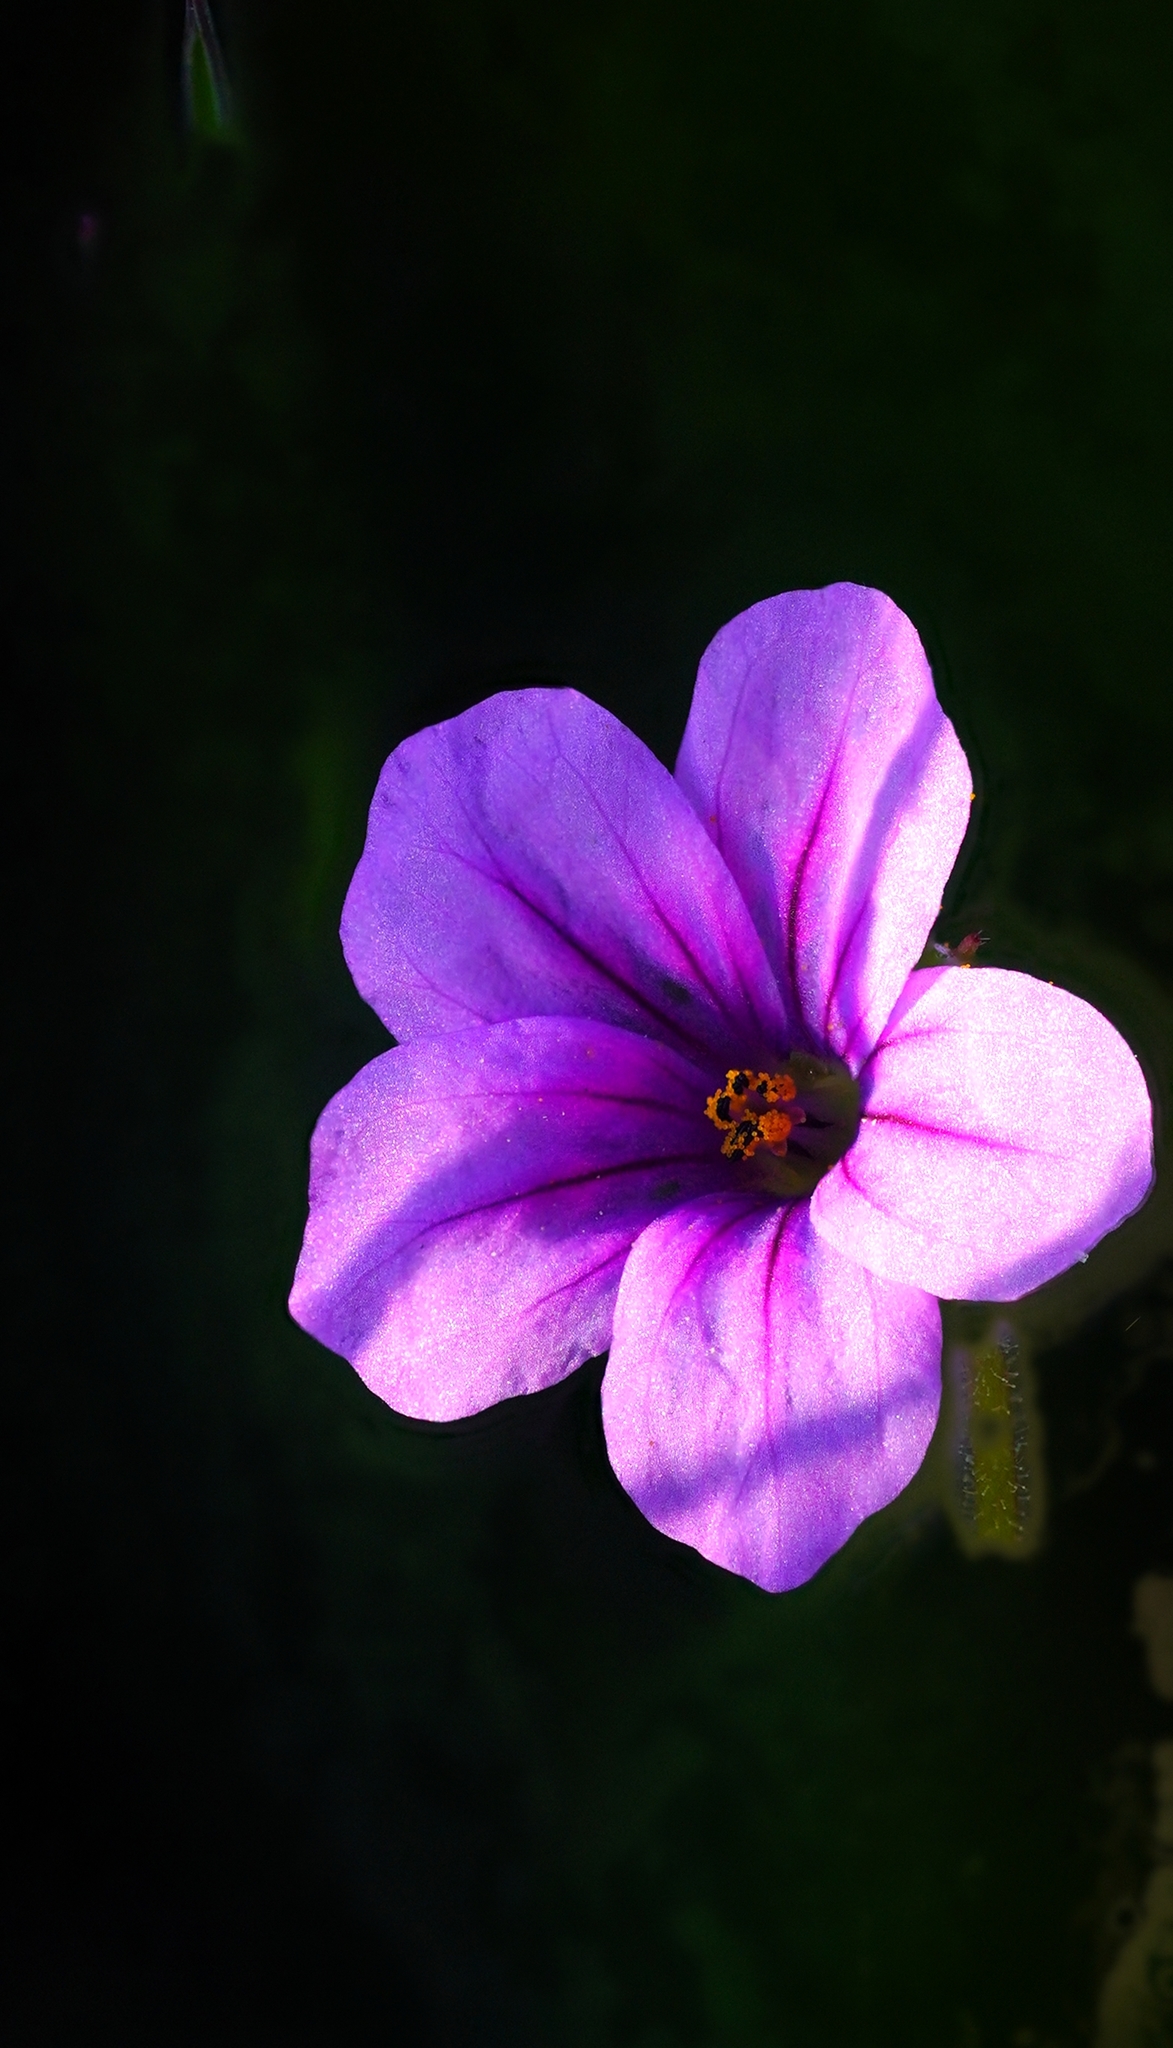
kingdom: Plantae
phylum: Tracheophyta
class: Magnoliopsida
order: Geraniales
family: Geraniaceae
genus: Erodium
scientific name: Erodium botrys
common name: Mediterranean stork's-bill
